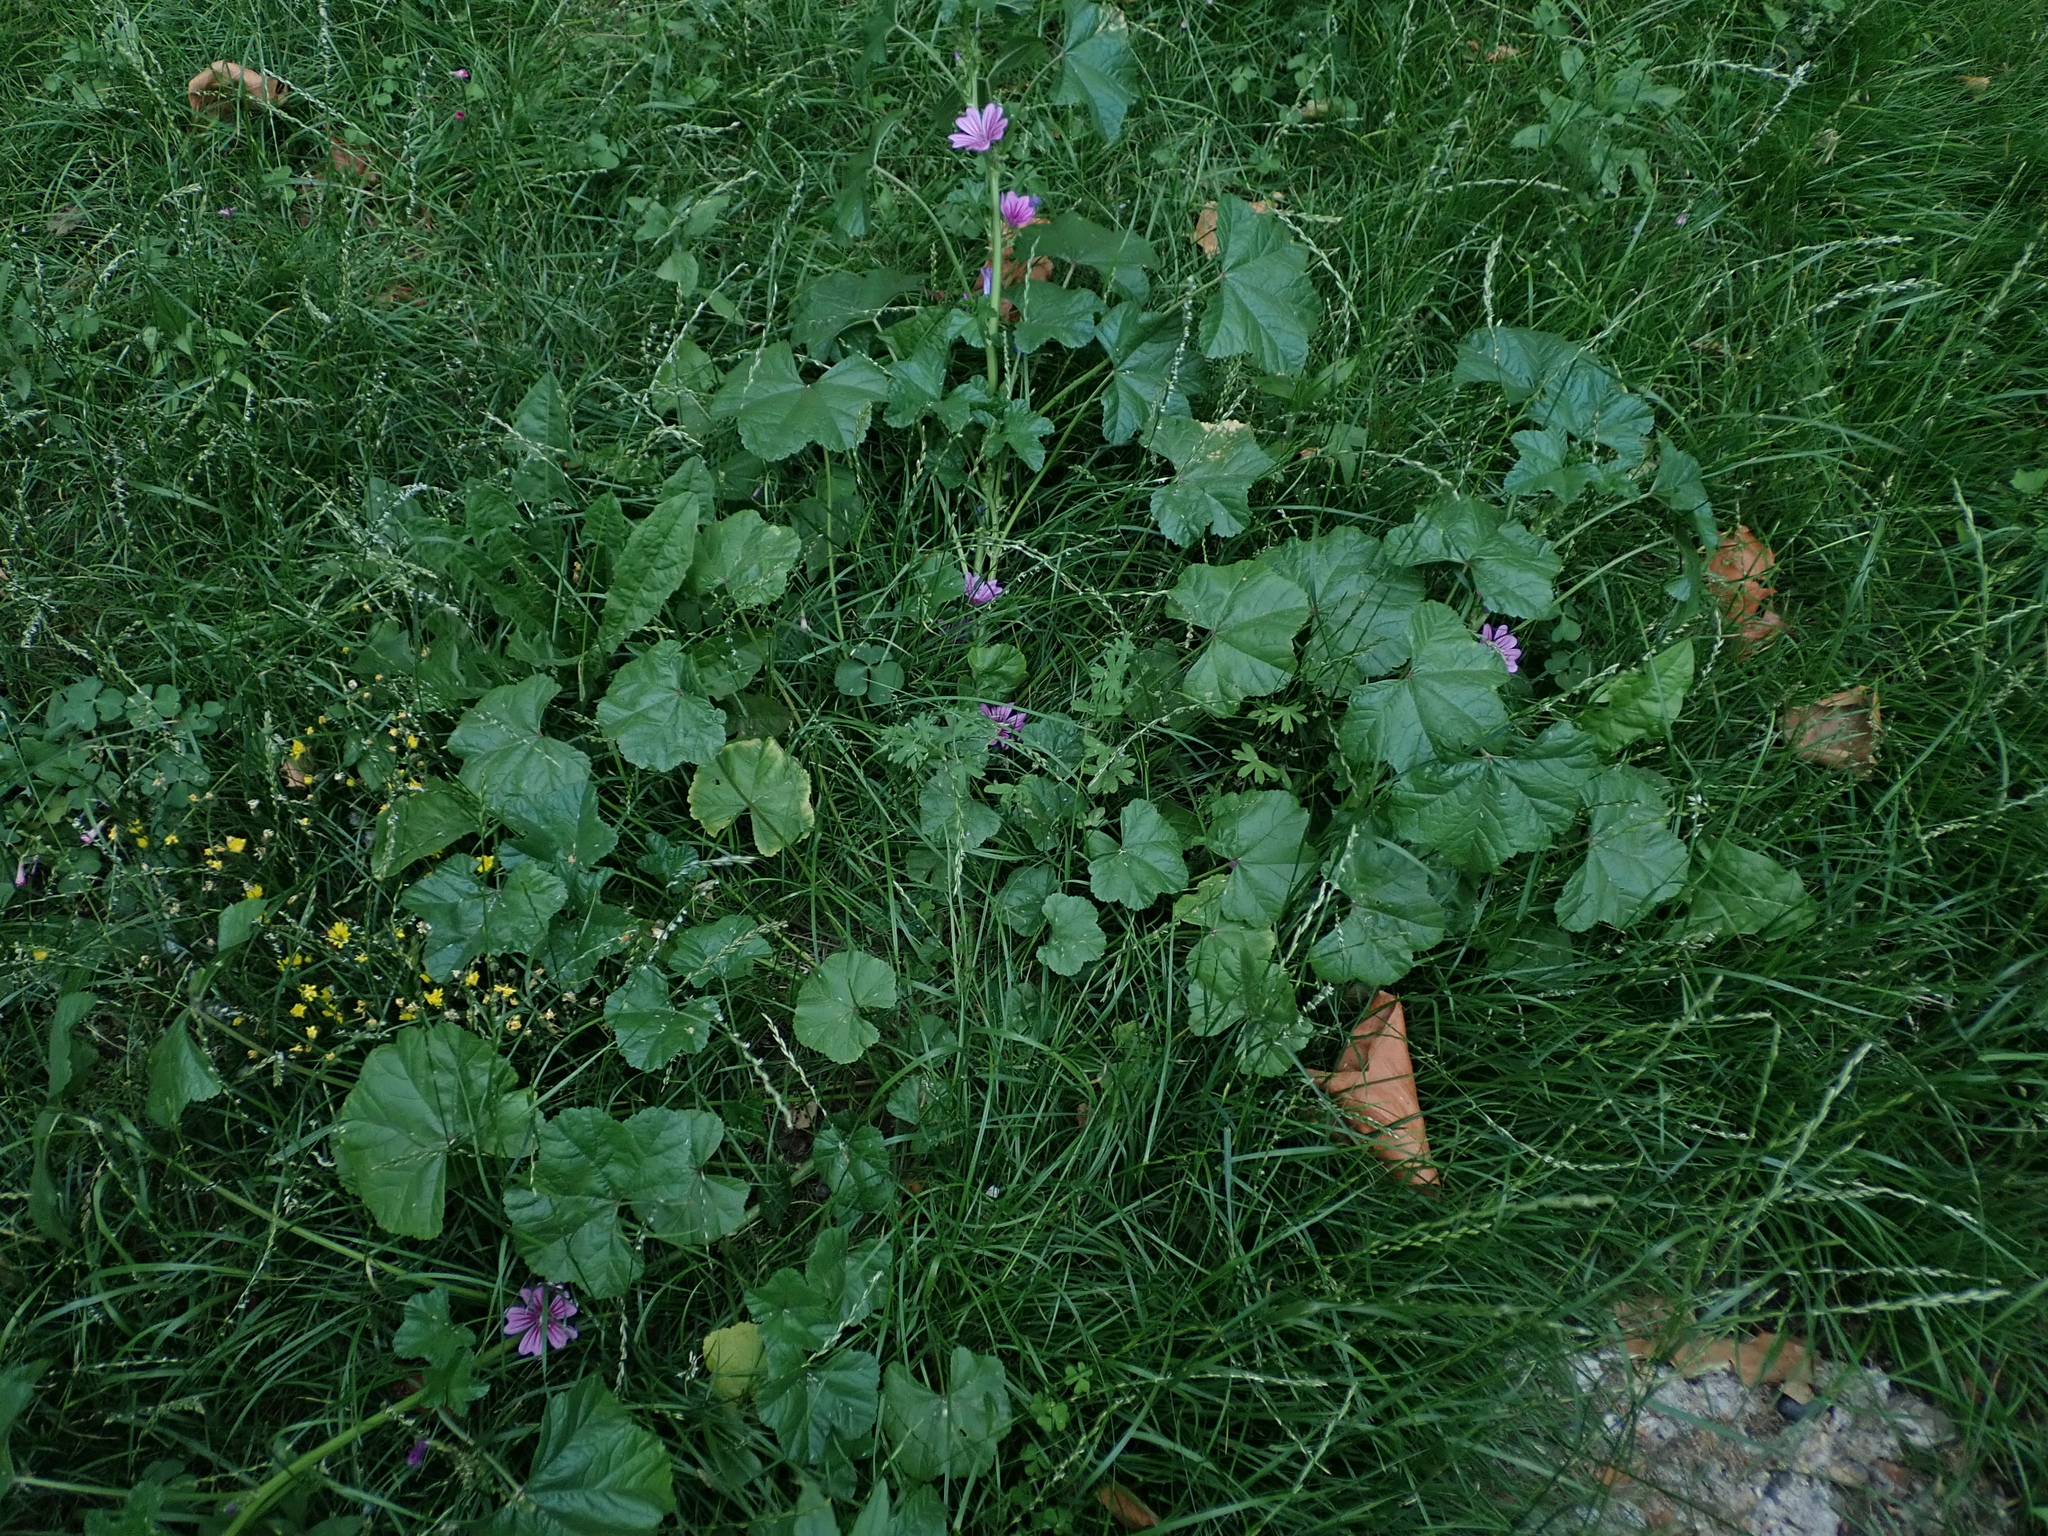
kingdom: Plantae
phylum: Tracheophyta
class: Magnoliopsida
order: Malvales
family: Malvaceae
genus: Malva
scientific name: Malva sylvestris
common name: Common mallow
